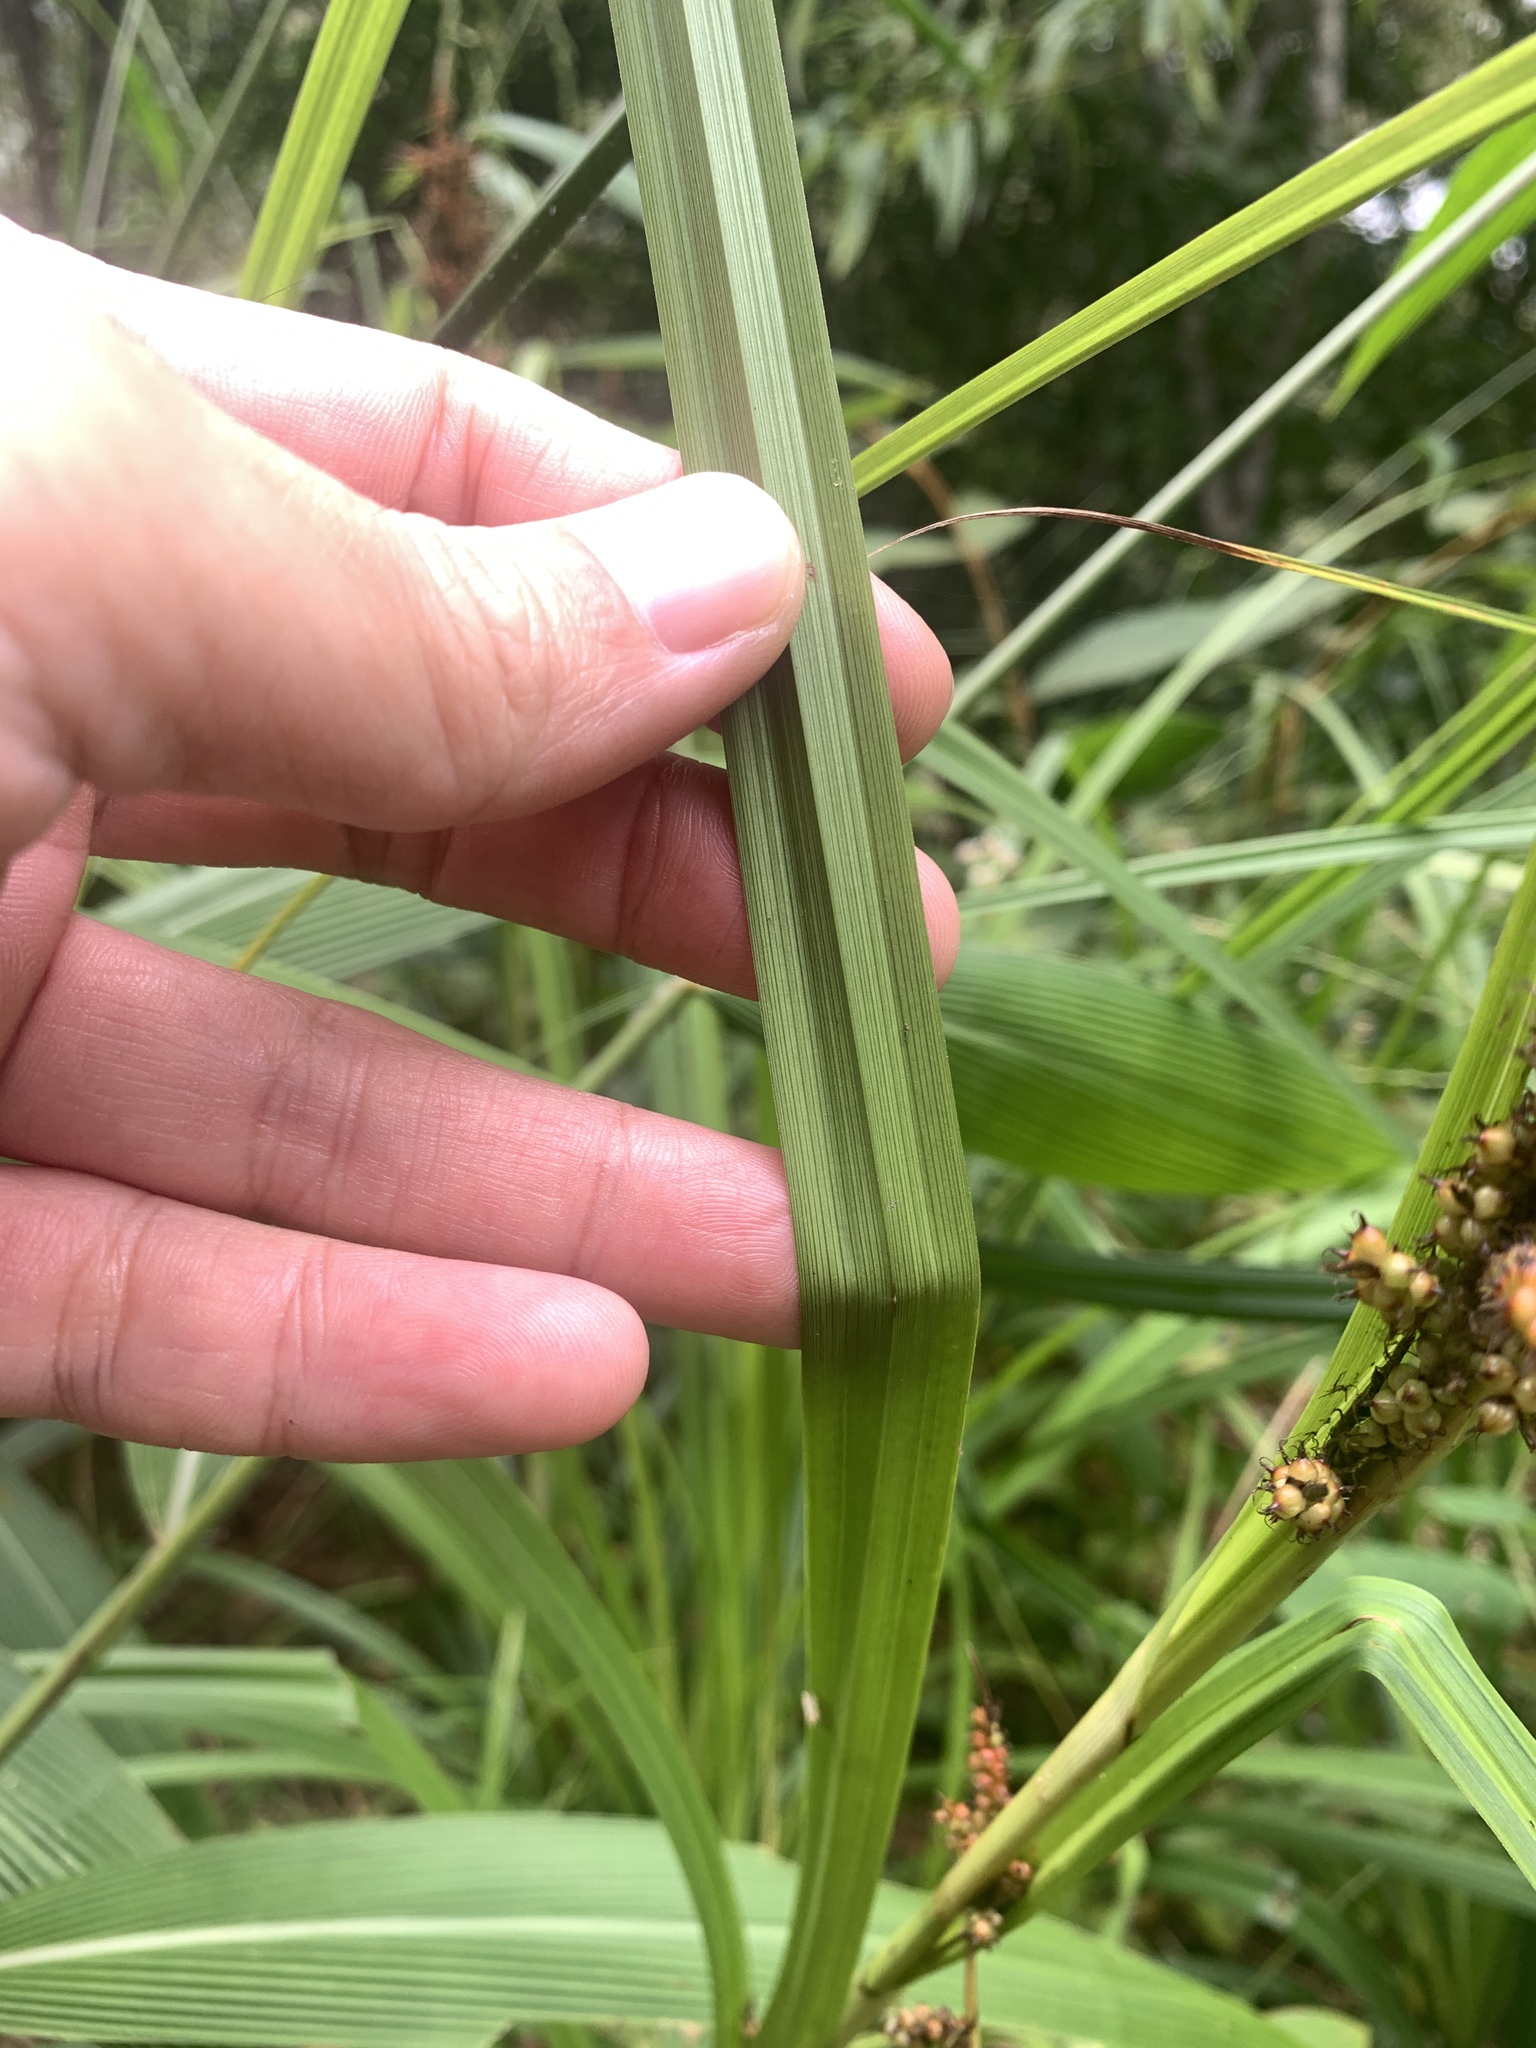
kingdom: Plantae
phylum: Tracheophyta
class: Liliopsida
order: Poales
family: Cyperaceae
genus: Carex
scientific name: Carex baccans
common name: Crimson seeded sedge
